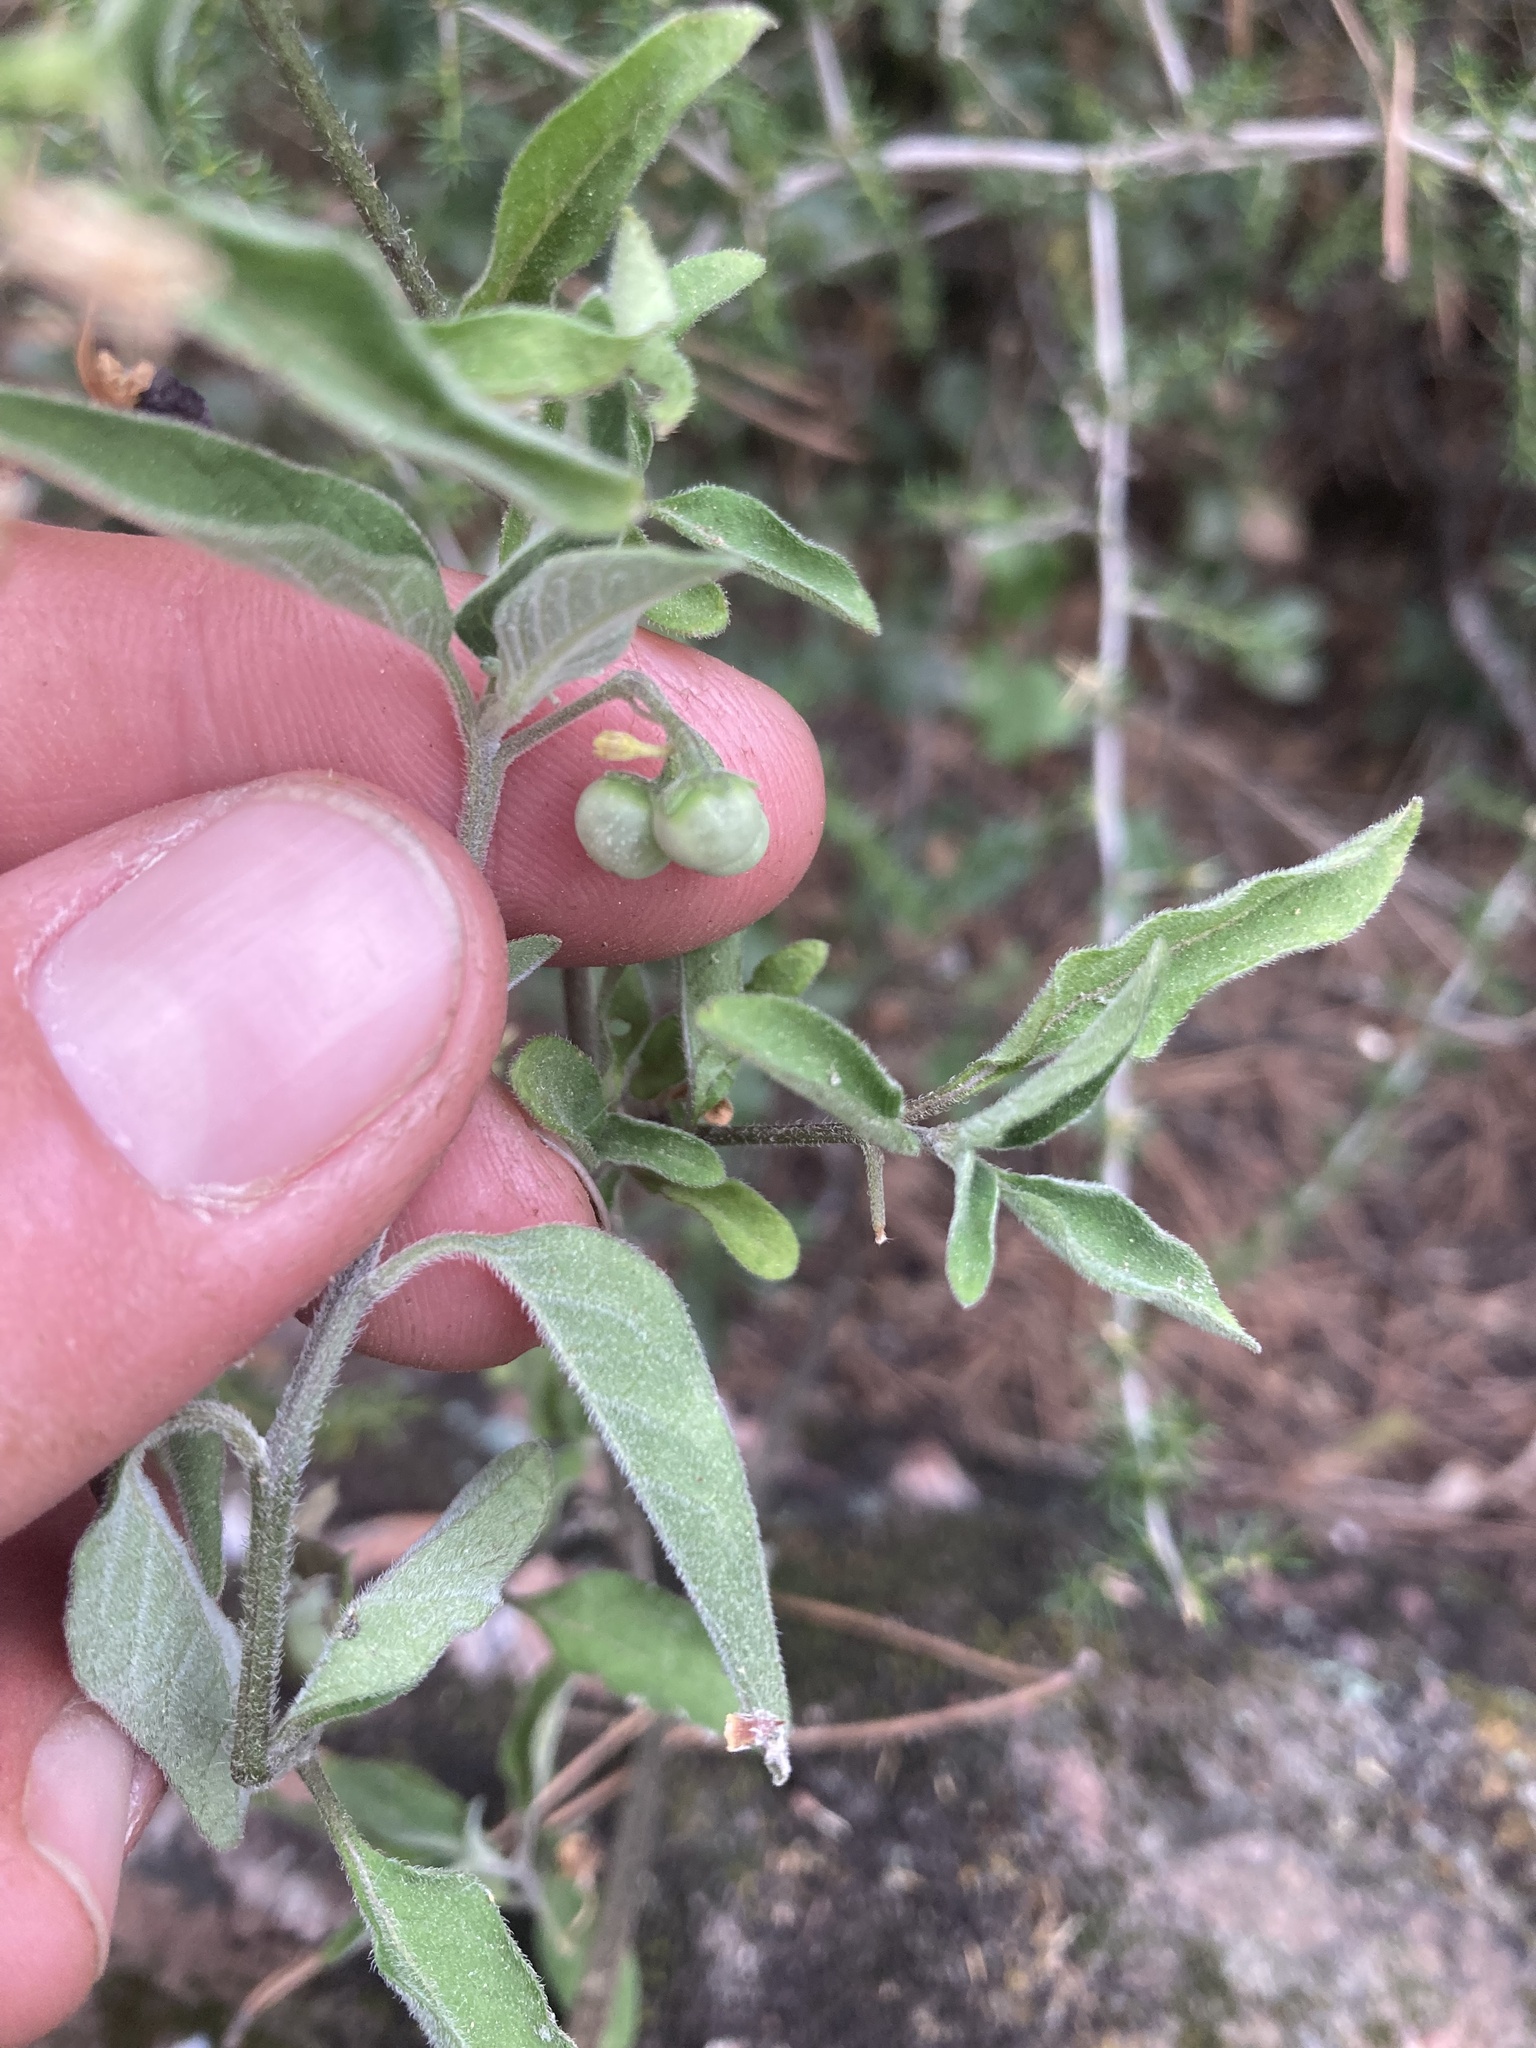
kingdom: Plantae
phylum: Tracheophyta
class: Magnoliopsida
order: Solanales
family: Solanaceae
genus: Solanum
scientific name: Solanum chenopodioides
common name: Tall nightshade
